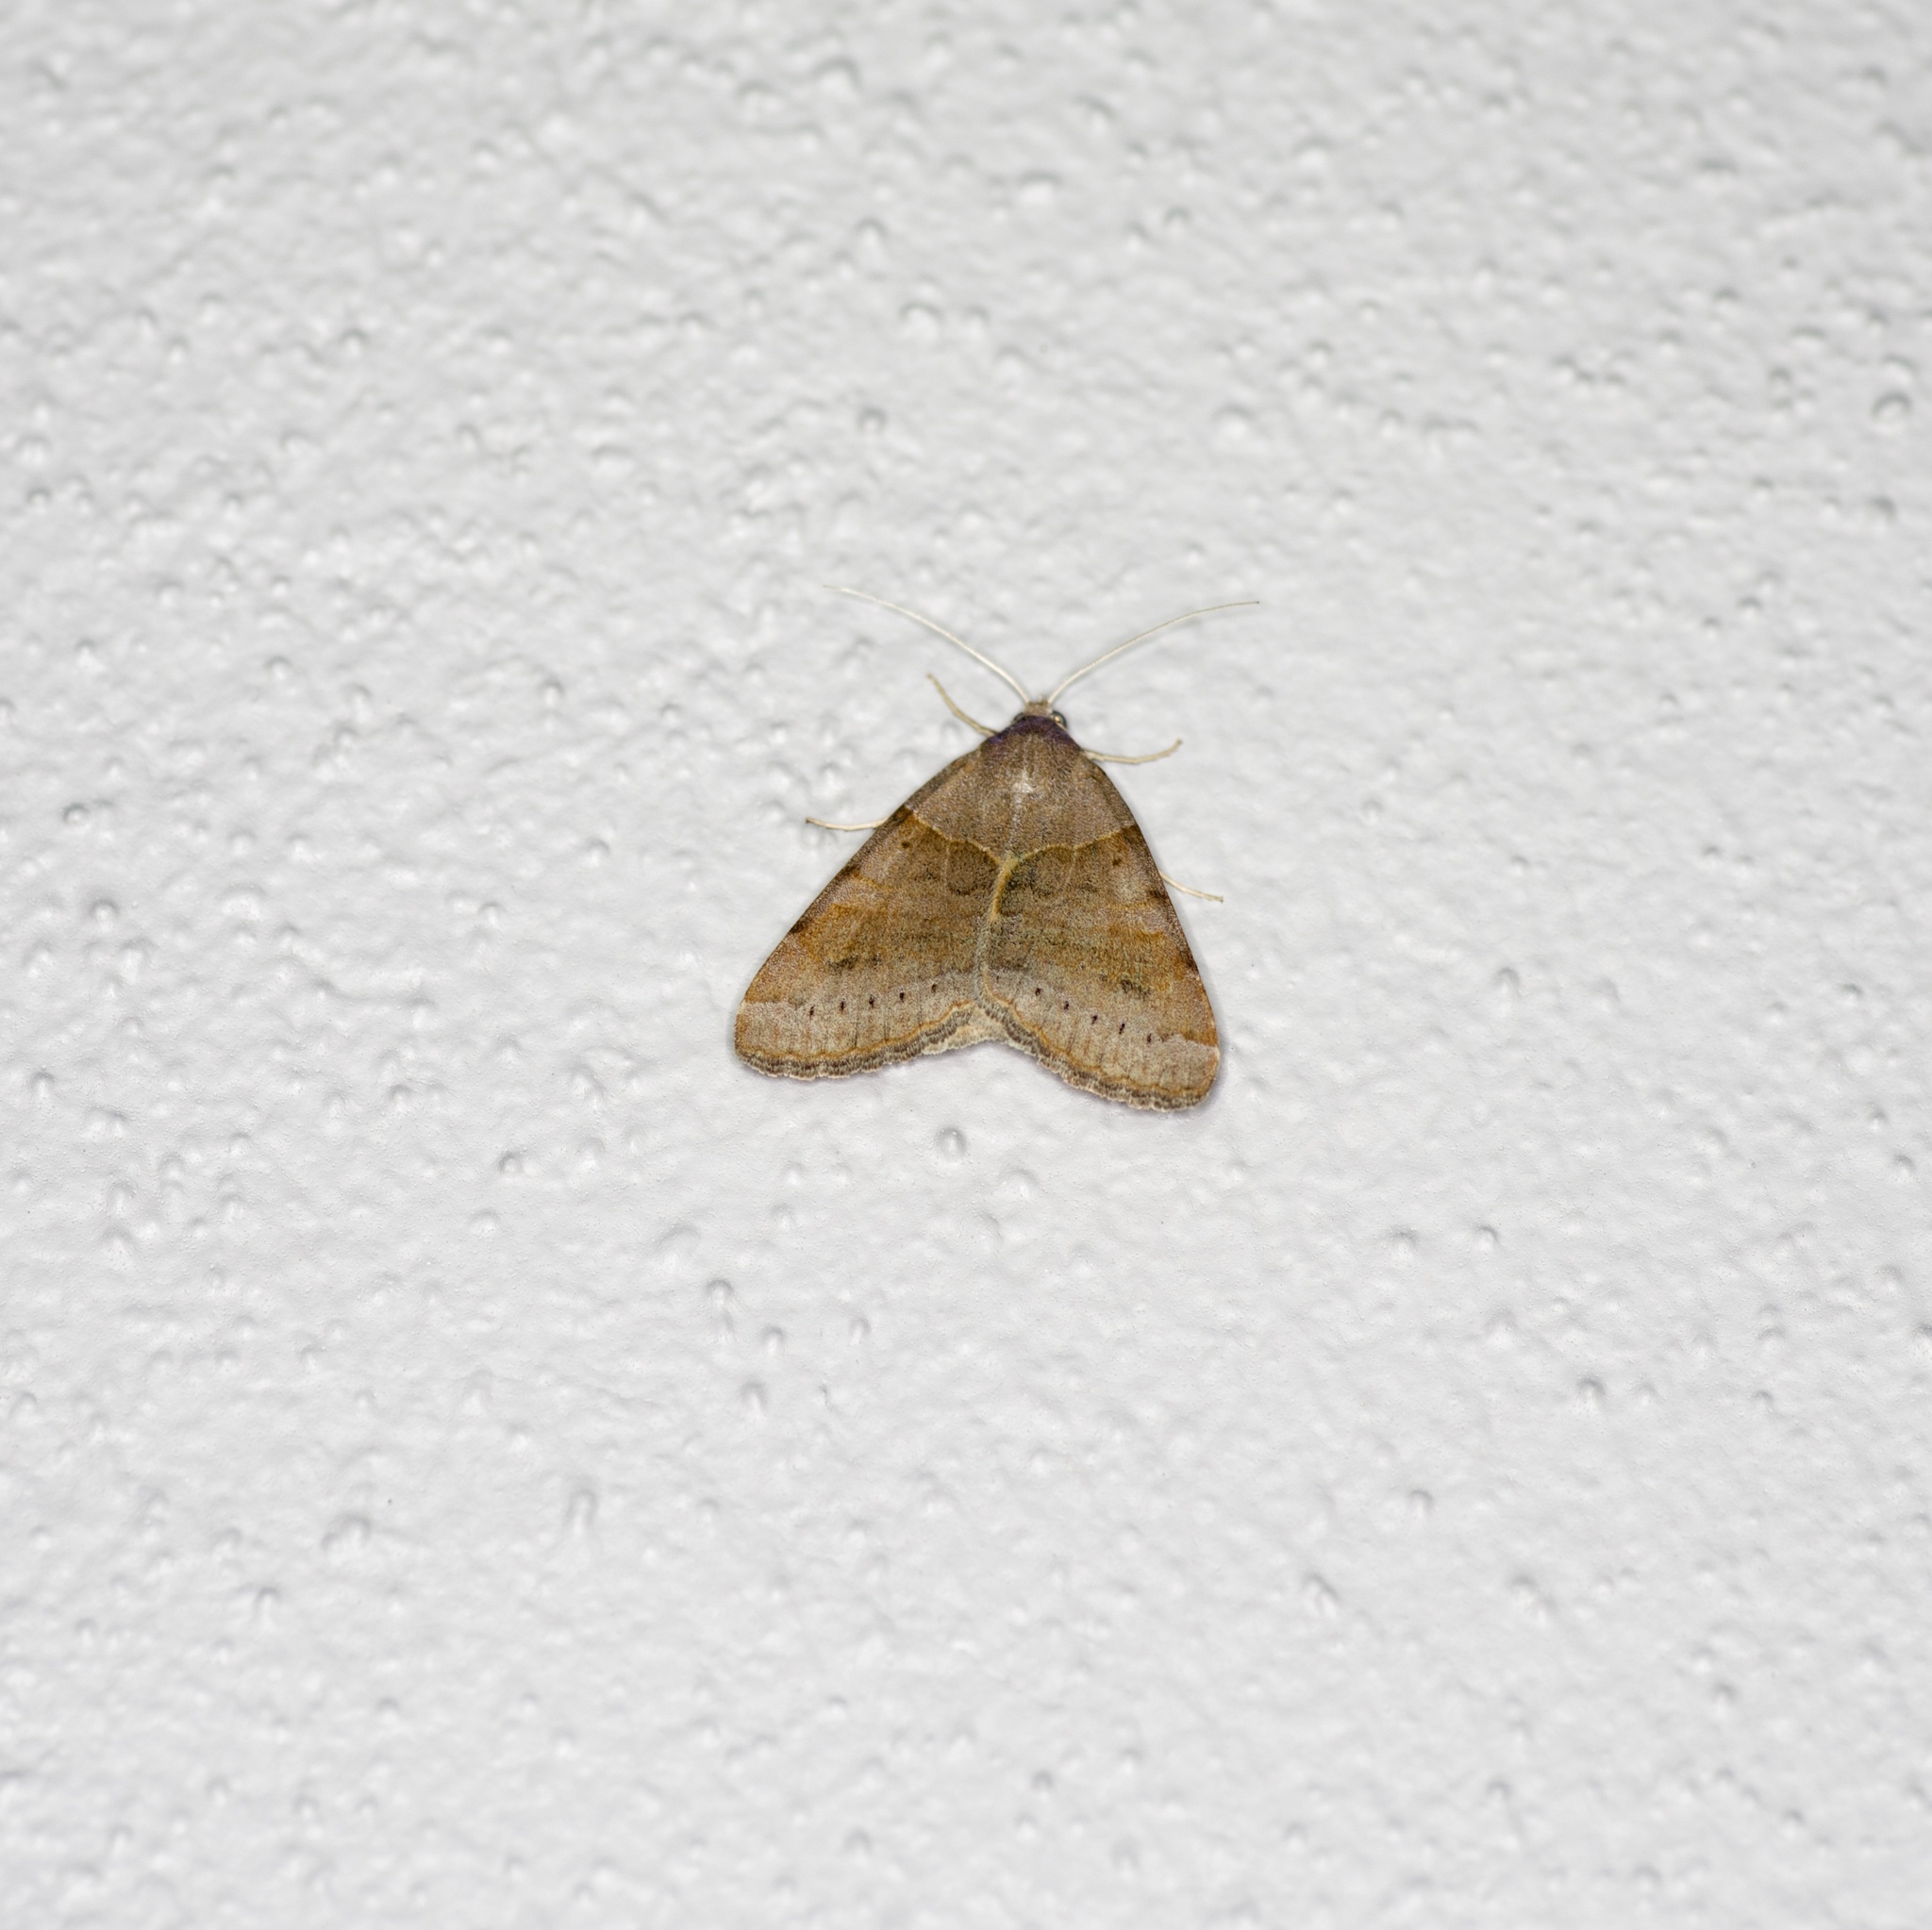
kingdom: Animalia
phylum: Arthropoda
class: Insecta
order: Lepidoptera
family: Erebidae
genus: Caenurgina
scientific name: Caenurgina erechtea
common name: Forage looper moth
